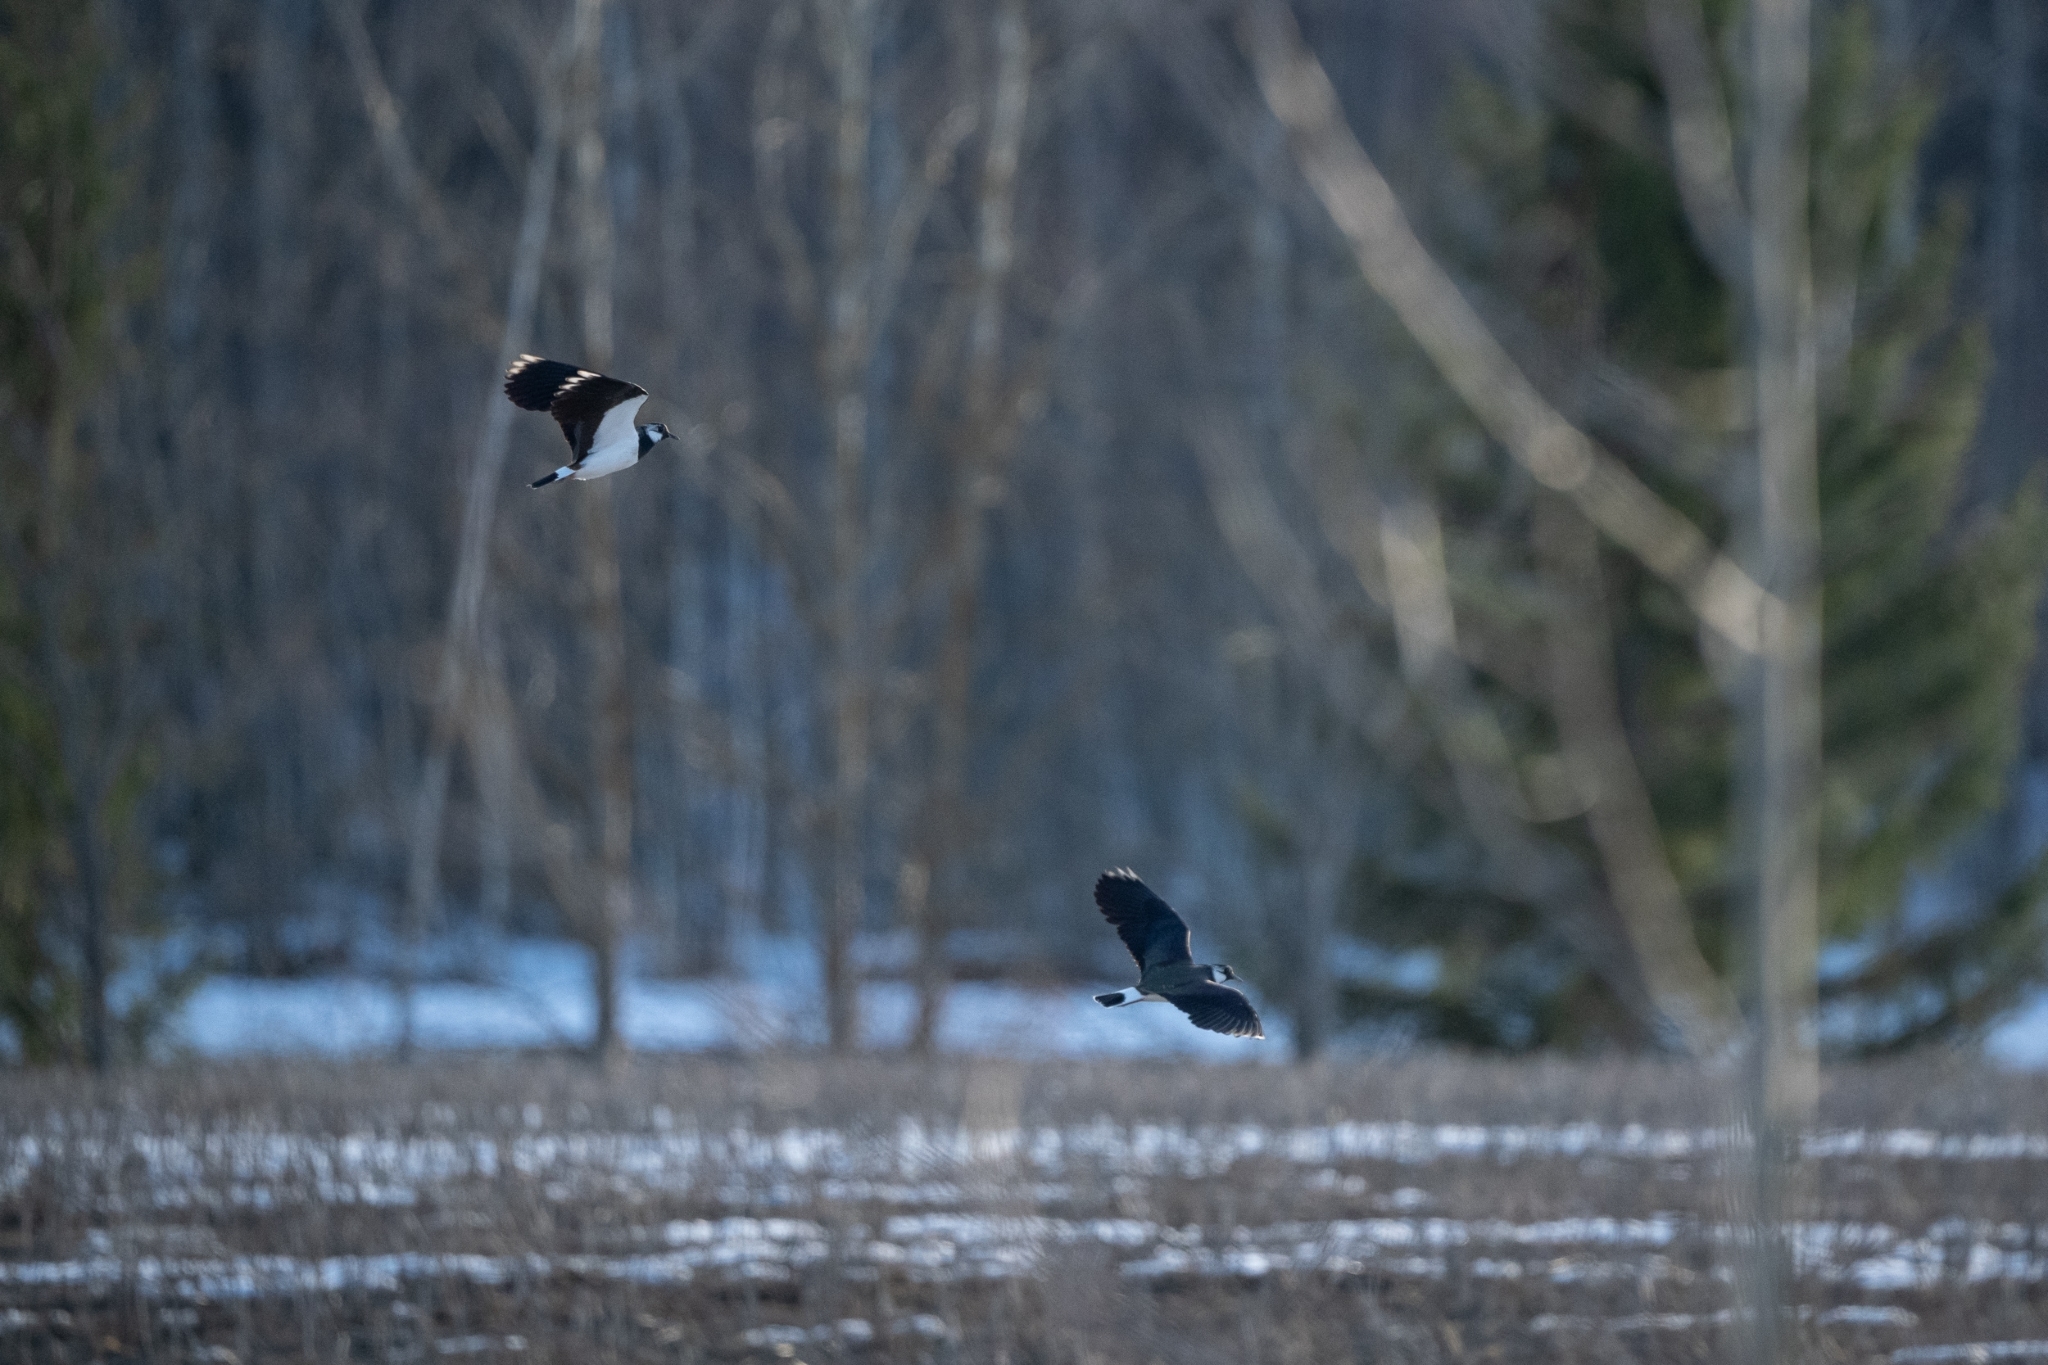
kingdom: Animalia
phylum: Chordata
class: Aves
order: Charadriiformes
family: Charadriidae
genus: Vanellus
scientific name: Vanellus vanellus
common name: Northern lapwing
